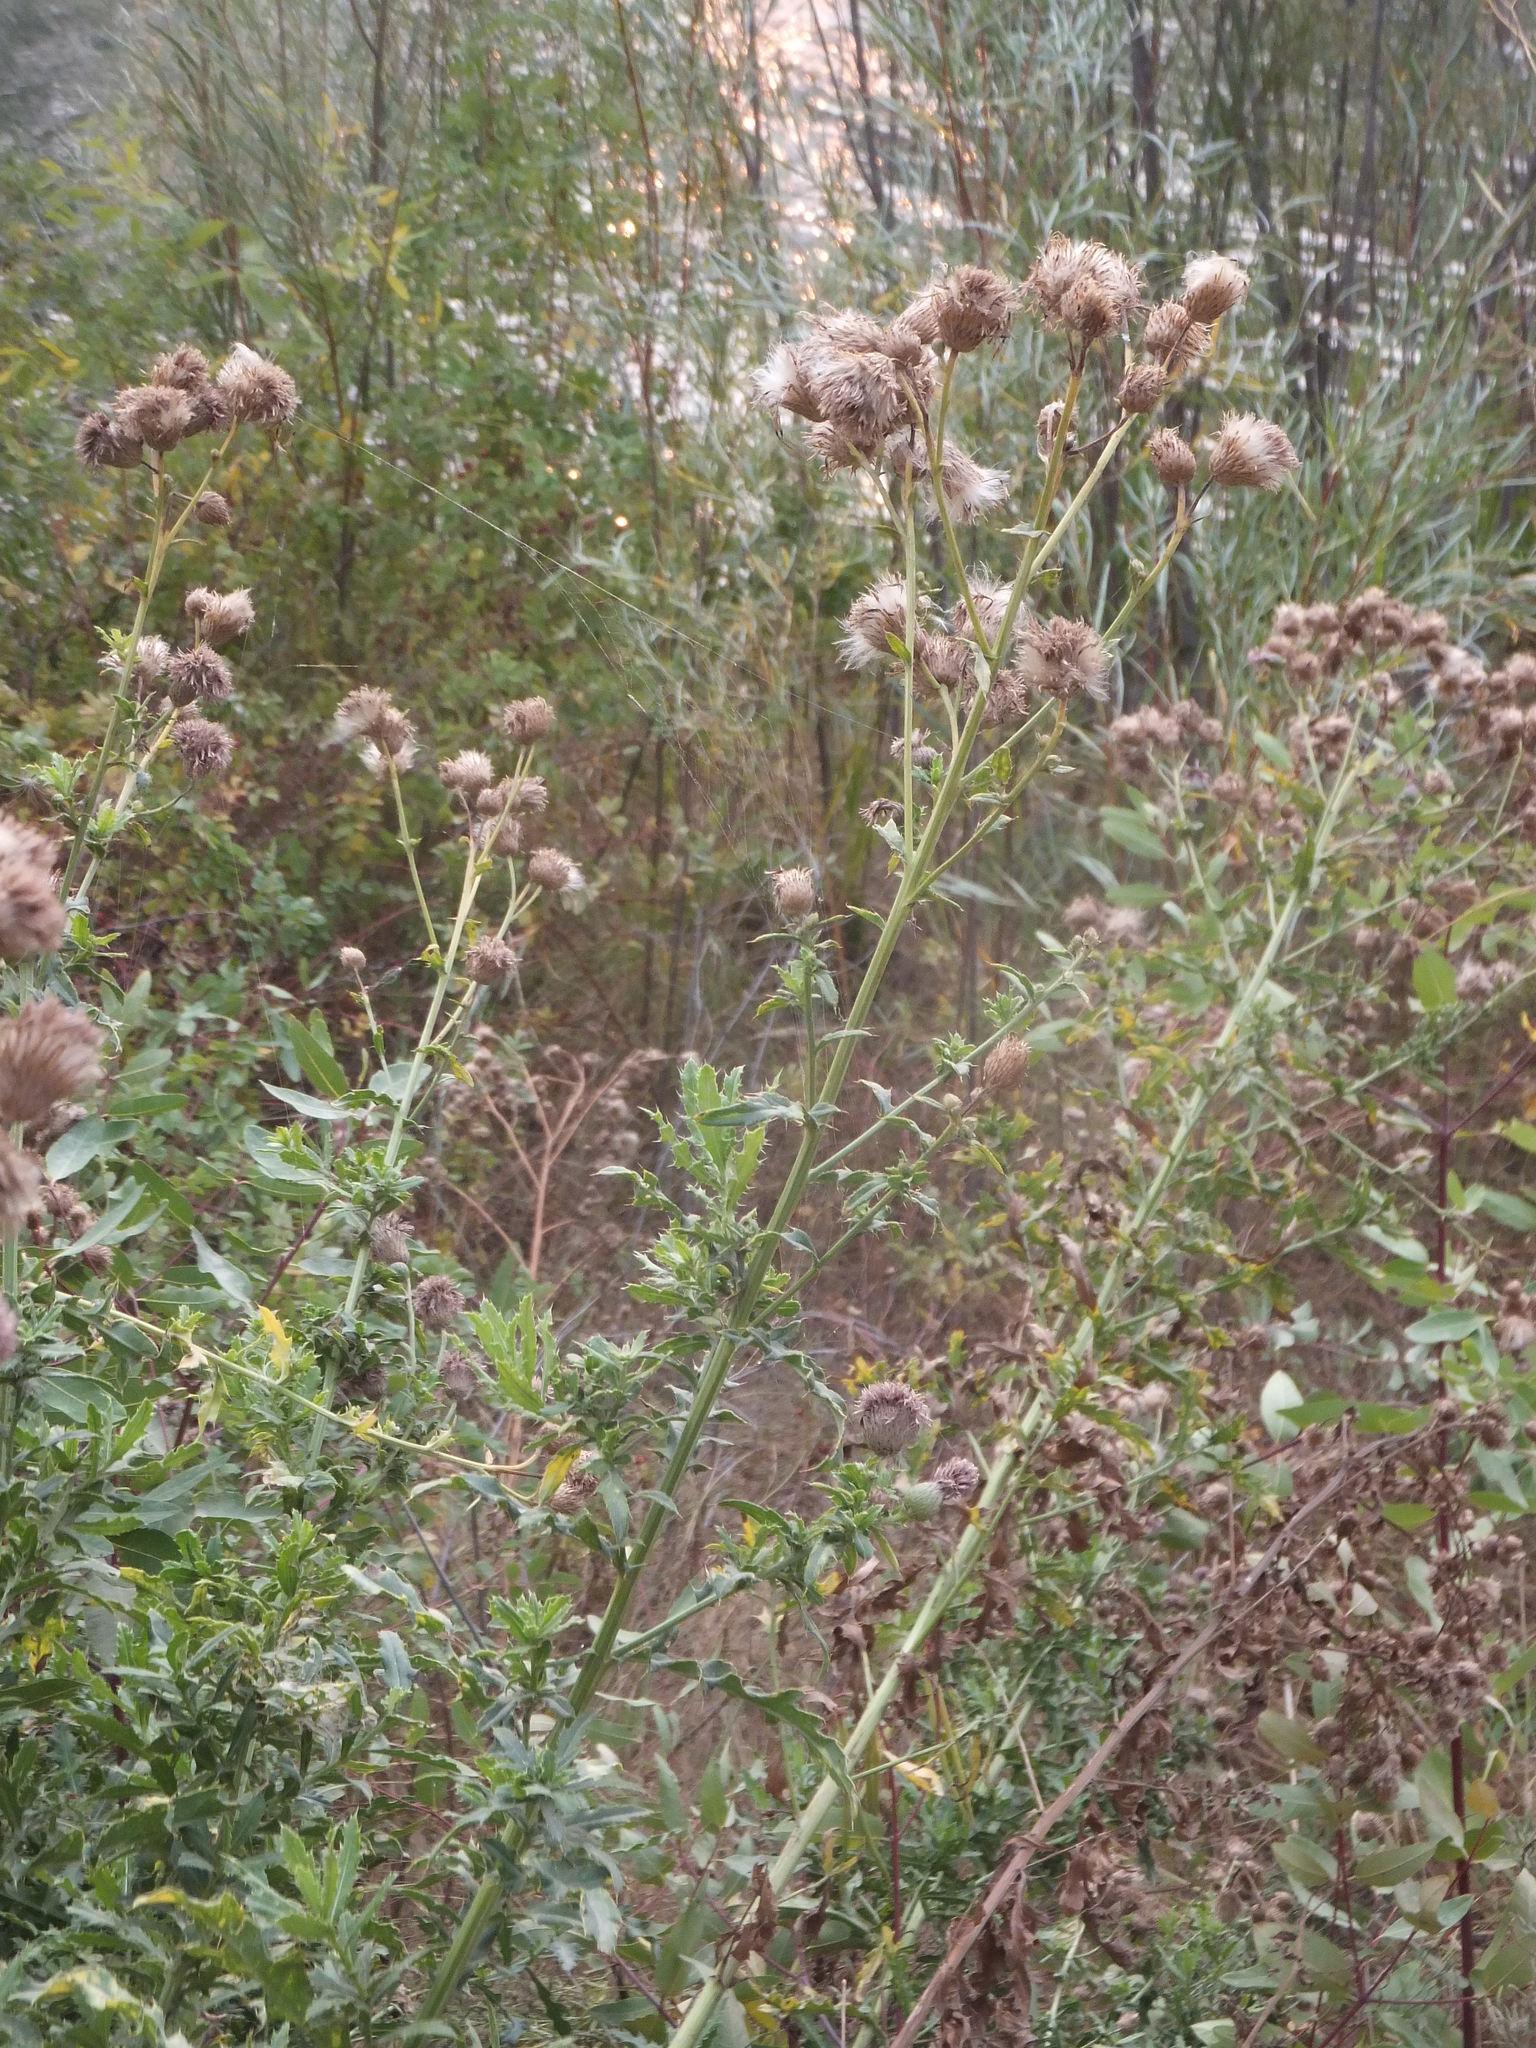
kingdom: Plantae
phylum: Tracheophyta
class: Magnoliopsida
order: Asterales
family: Asteraceae
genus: Cirsium
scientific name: Cirsium arvense
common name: Creeping thistle
